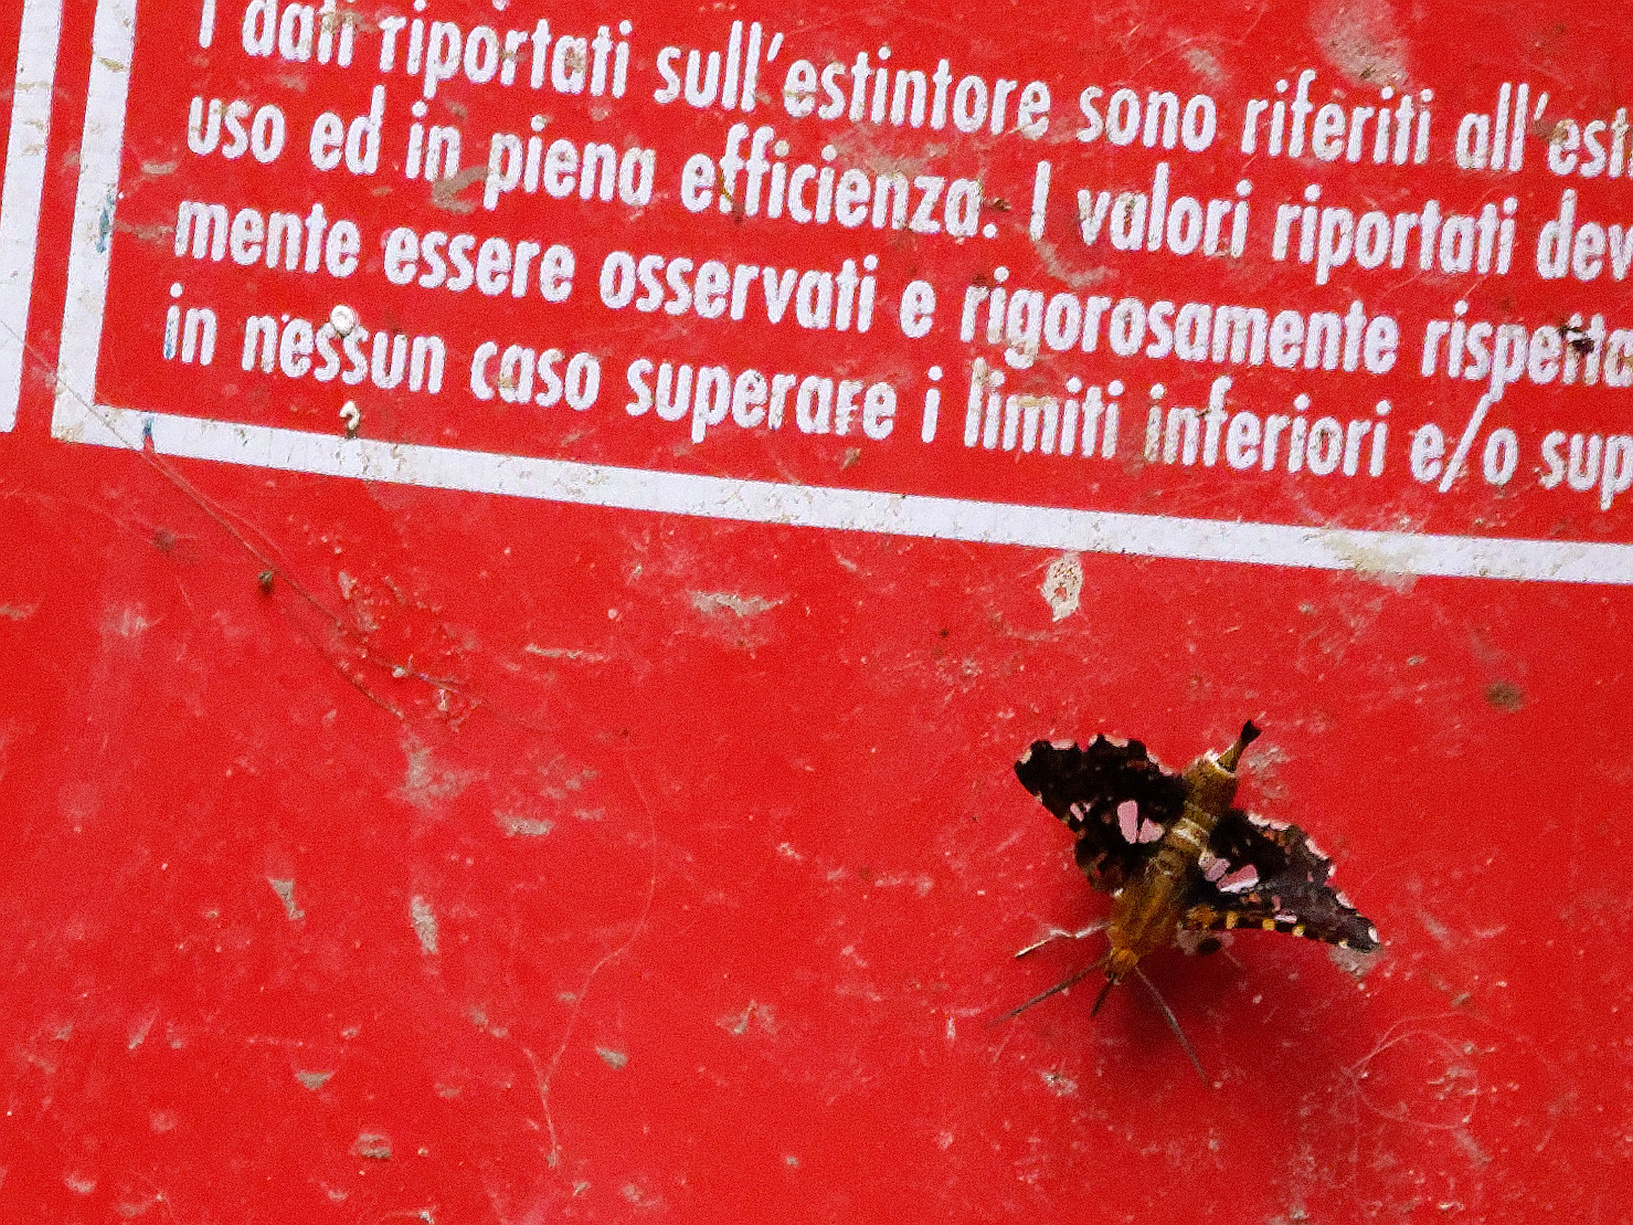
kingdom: Animalia
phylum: Arthropoda
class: Insecta
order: Lepidoptera
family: Thyrididae
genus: Thyris
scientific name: Thyris fenestrella
